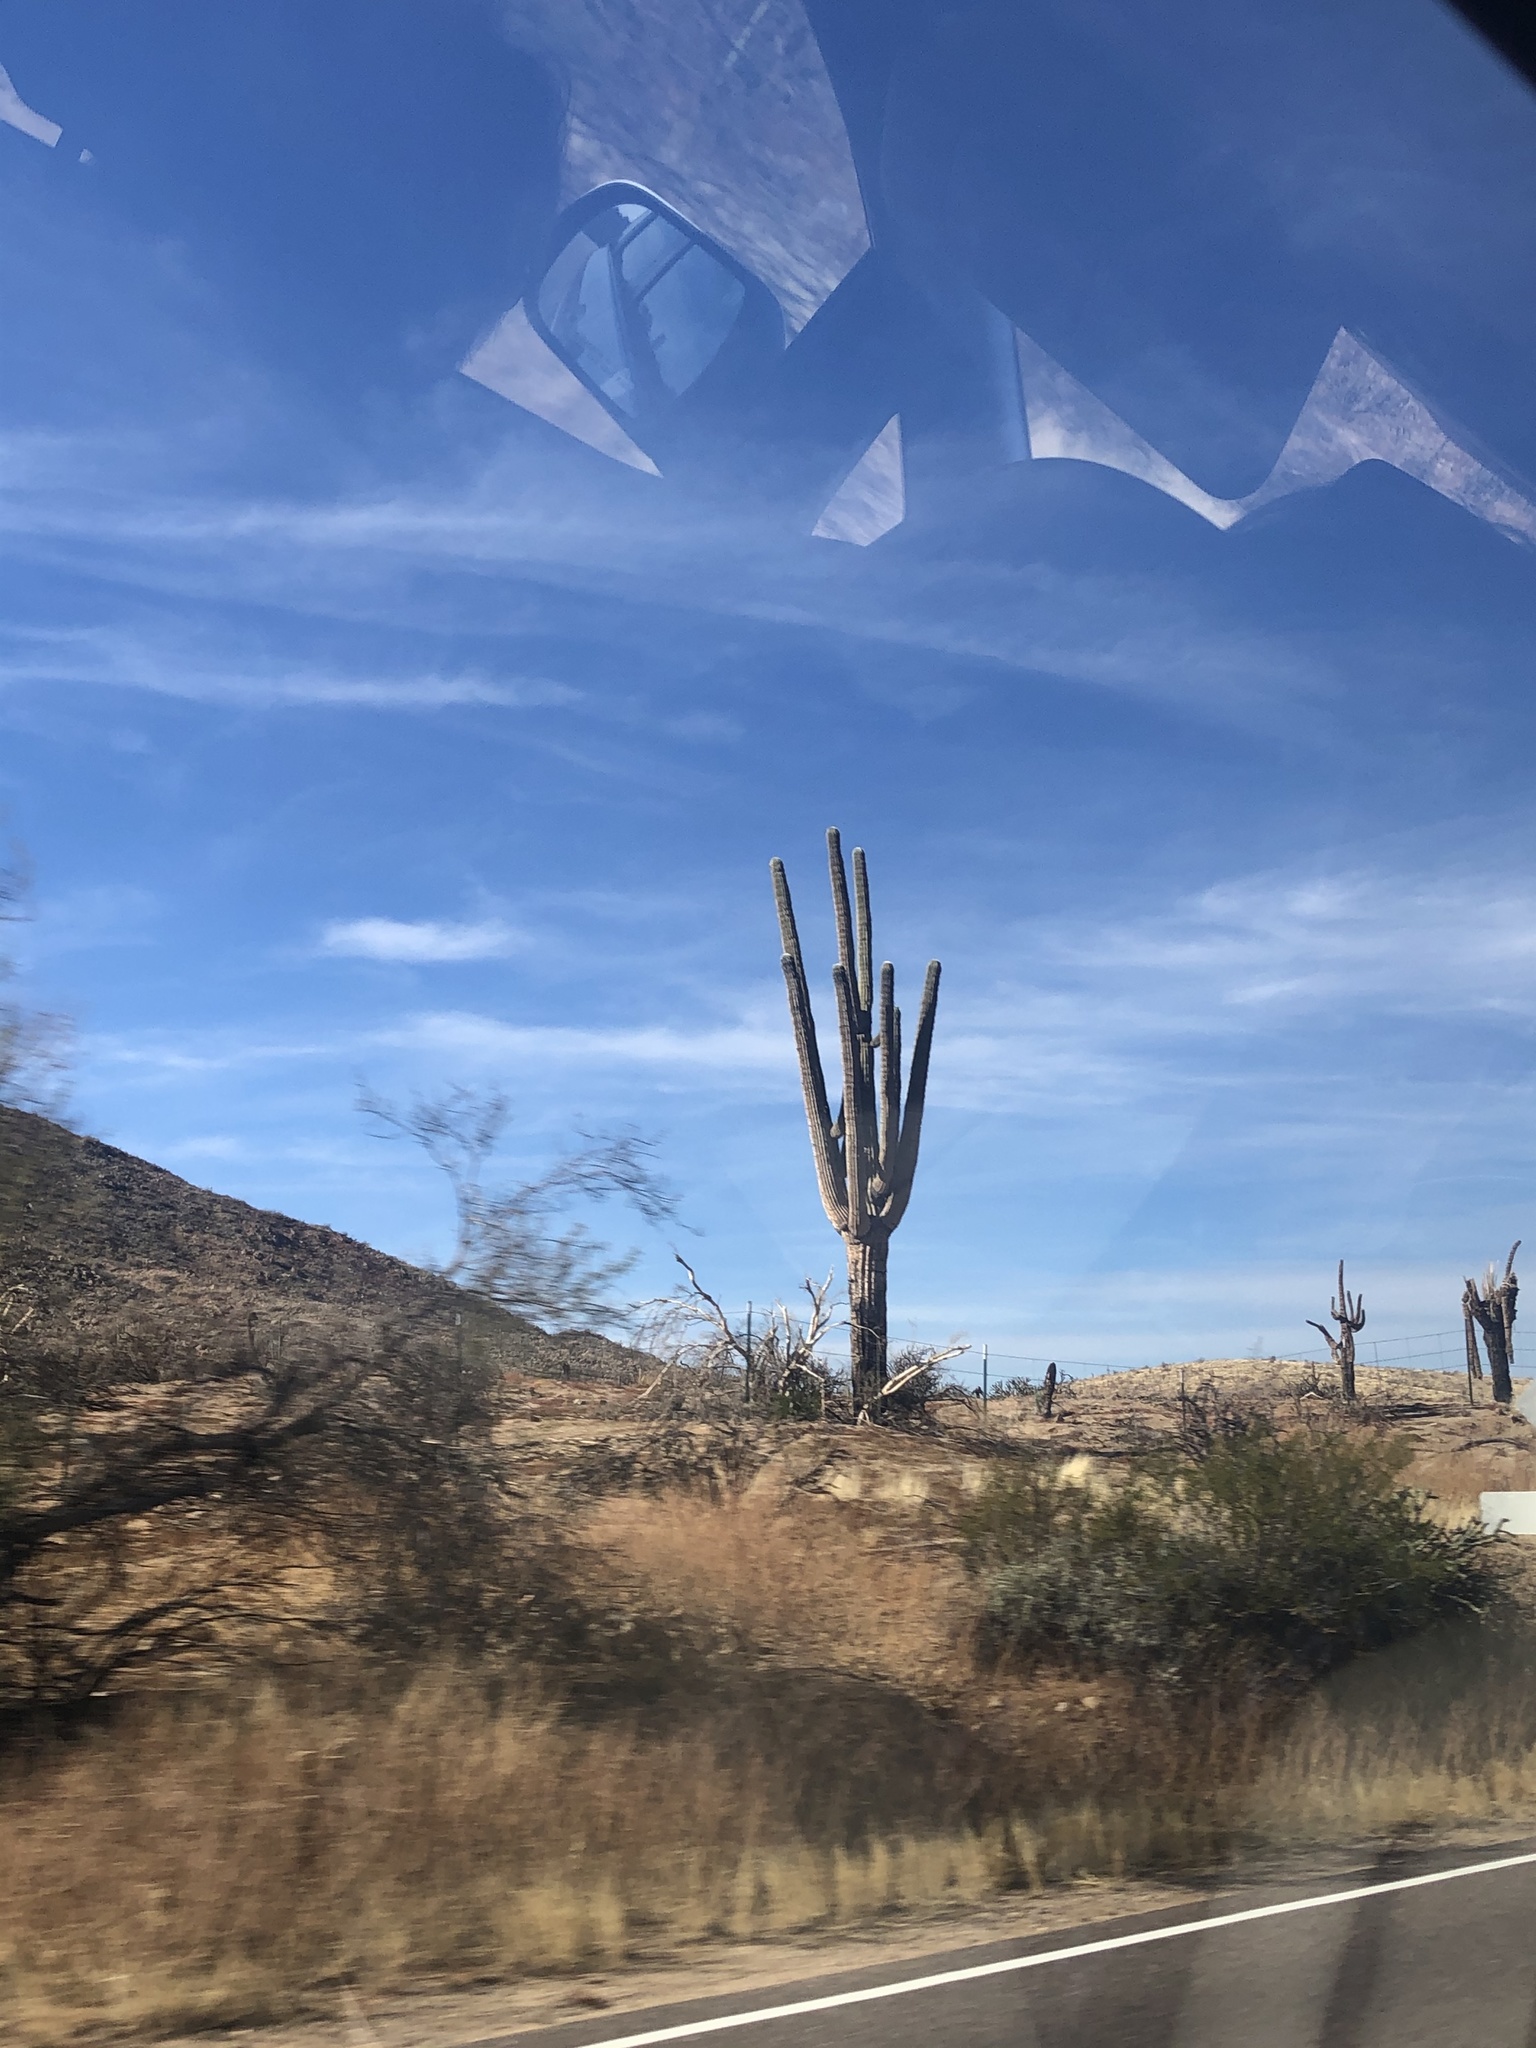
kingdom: Plantae
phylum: Tracheophyta
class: Magnoliopsida
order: Caryophyllales
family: Cactaceae
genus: Carnegiea
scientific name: Carnegiea gigantea
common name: Saguaro
